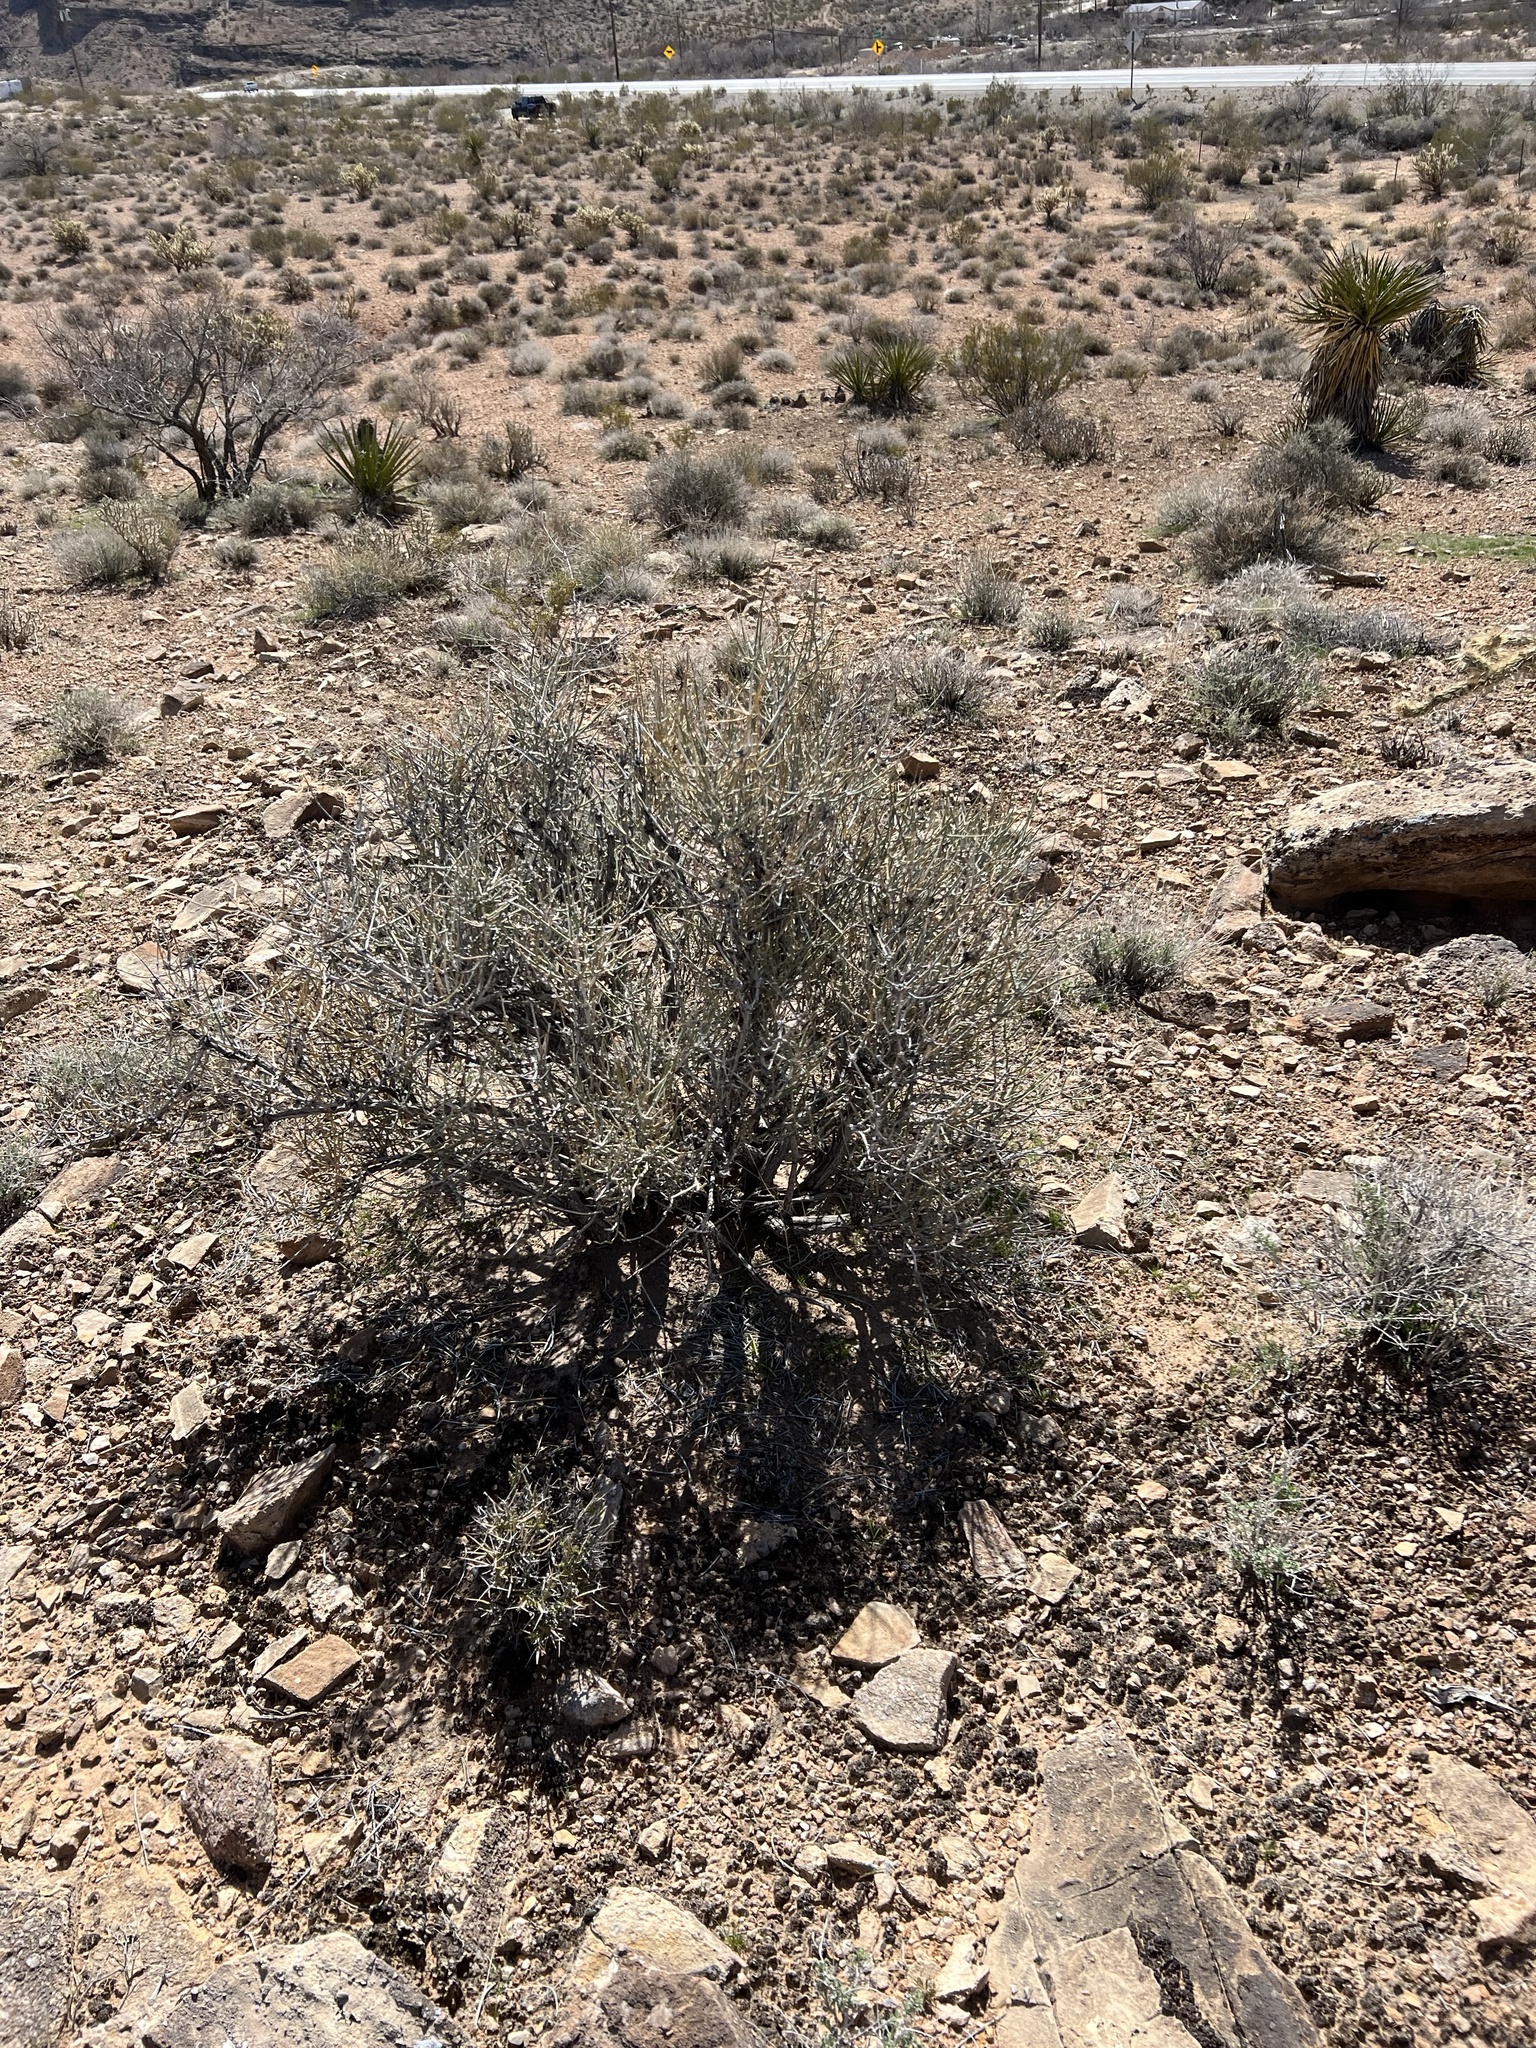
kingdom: Plantae
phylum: Tracheophyta
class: Gnetopsida
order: Ephedrales
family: Ephedraceae
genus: Ephedra
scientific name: Ephedra nevadensis
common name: Gray ephedra
